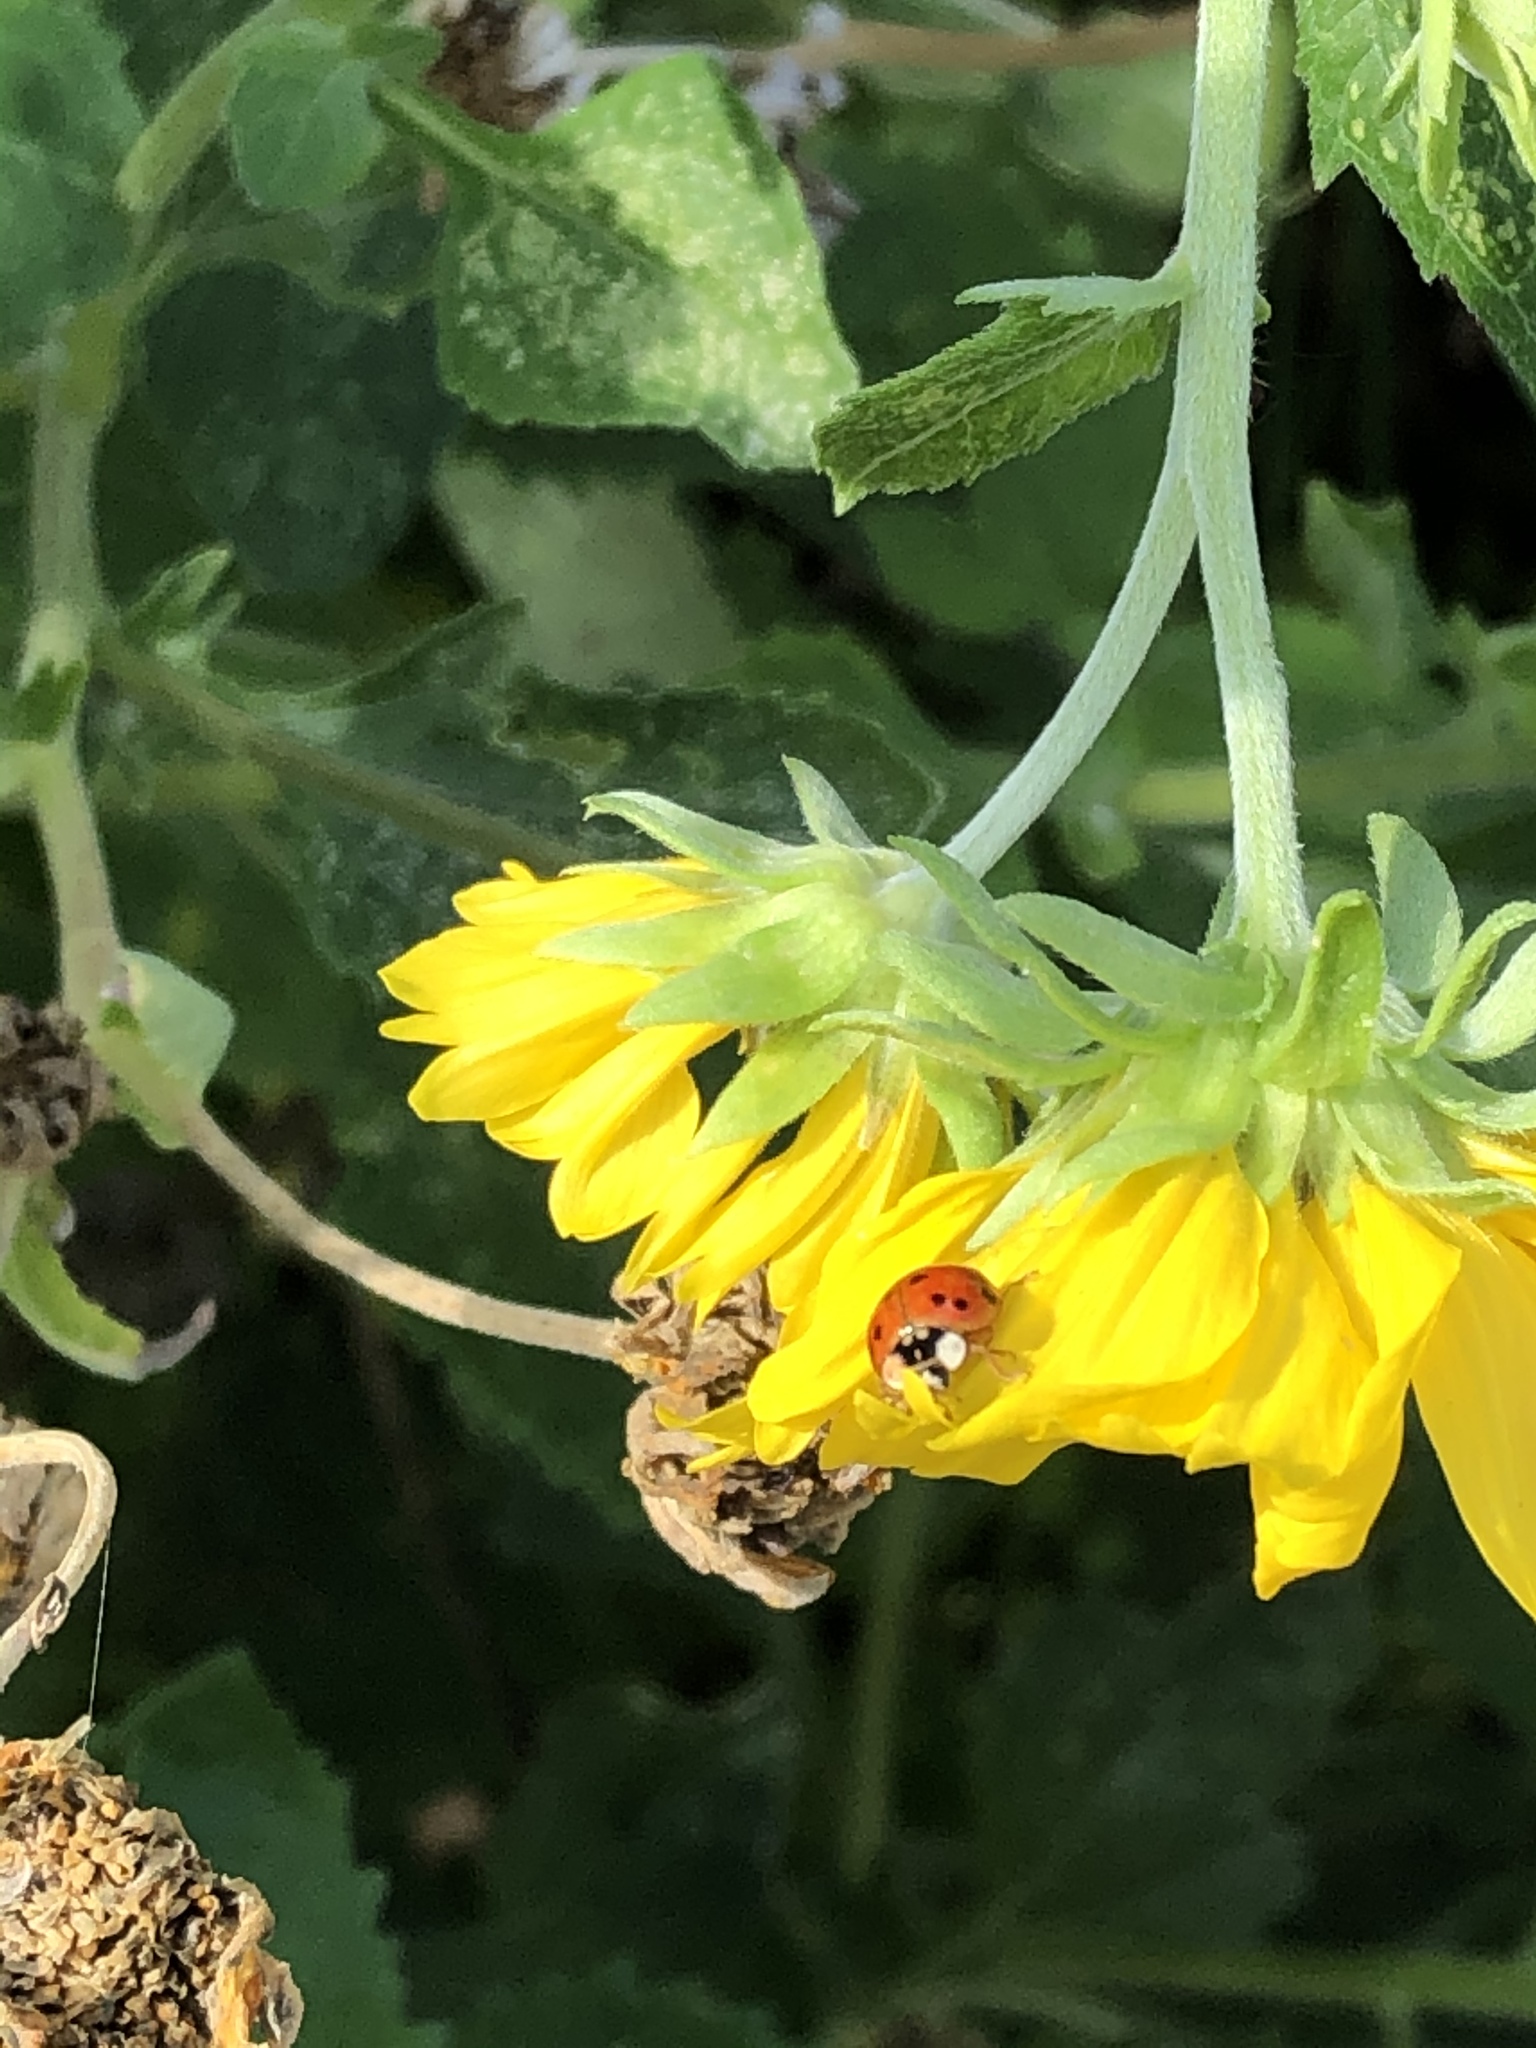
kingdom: Animalia
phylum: Arthropoda
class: Insecta
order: Coleoptera
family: Coccinellidae
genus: Harmonia
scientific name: Harmonia axyridis
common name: Harlequin ladybird
